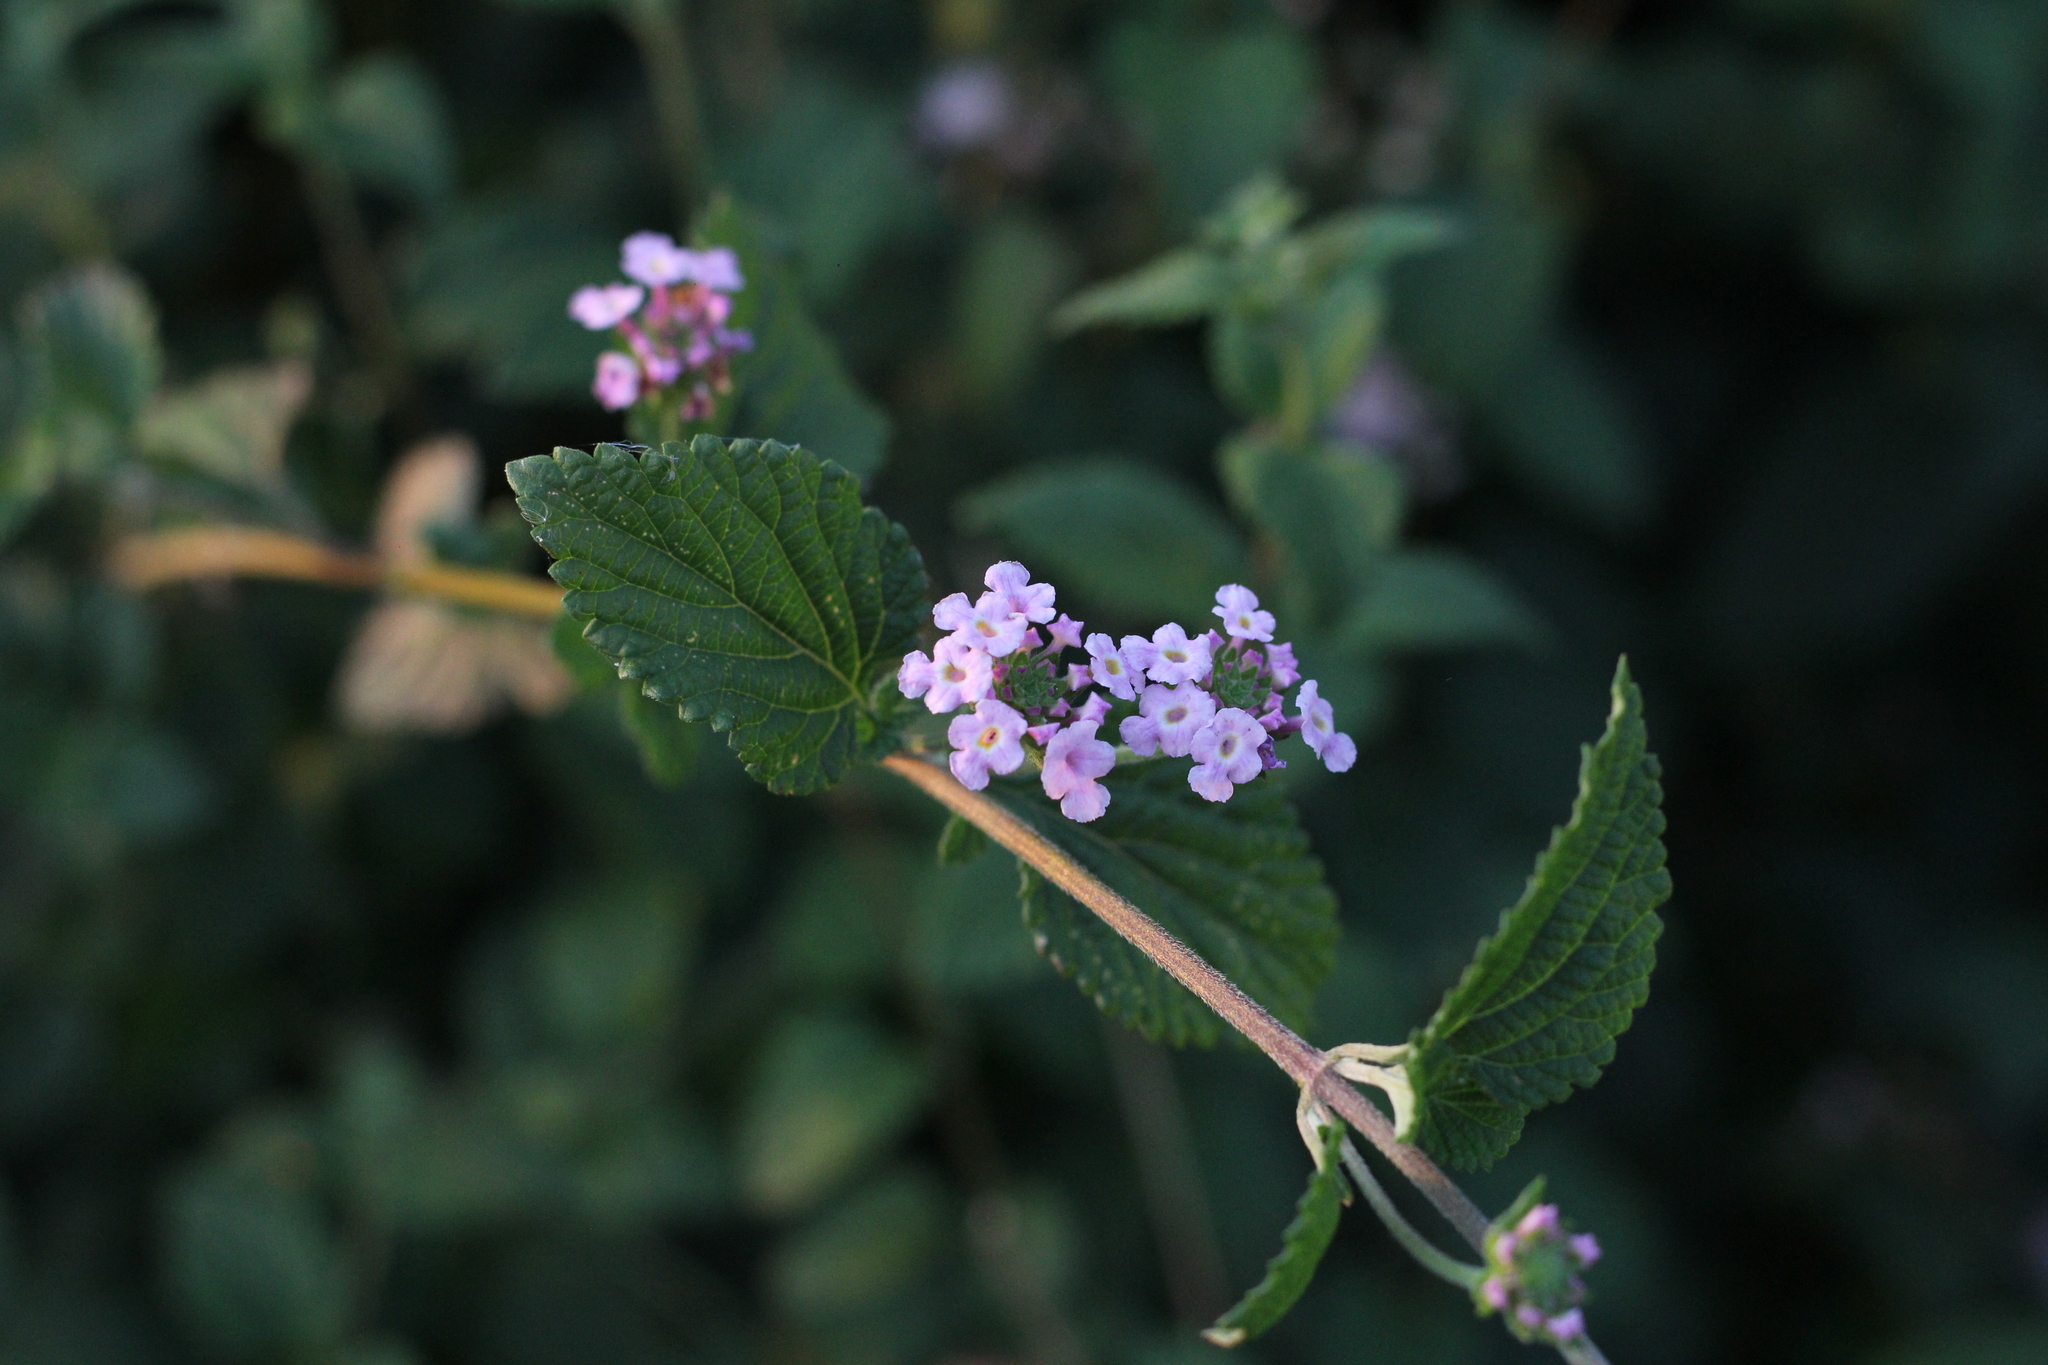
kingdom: Plantae
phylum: Tracheophyta
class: Magnoliopsida
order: Lamiales
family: Verbenaceae
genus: Lantana
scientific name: Lantana montevidensis
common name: Trailing shrubverbena
